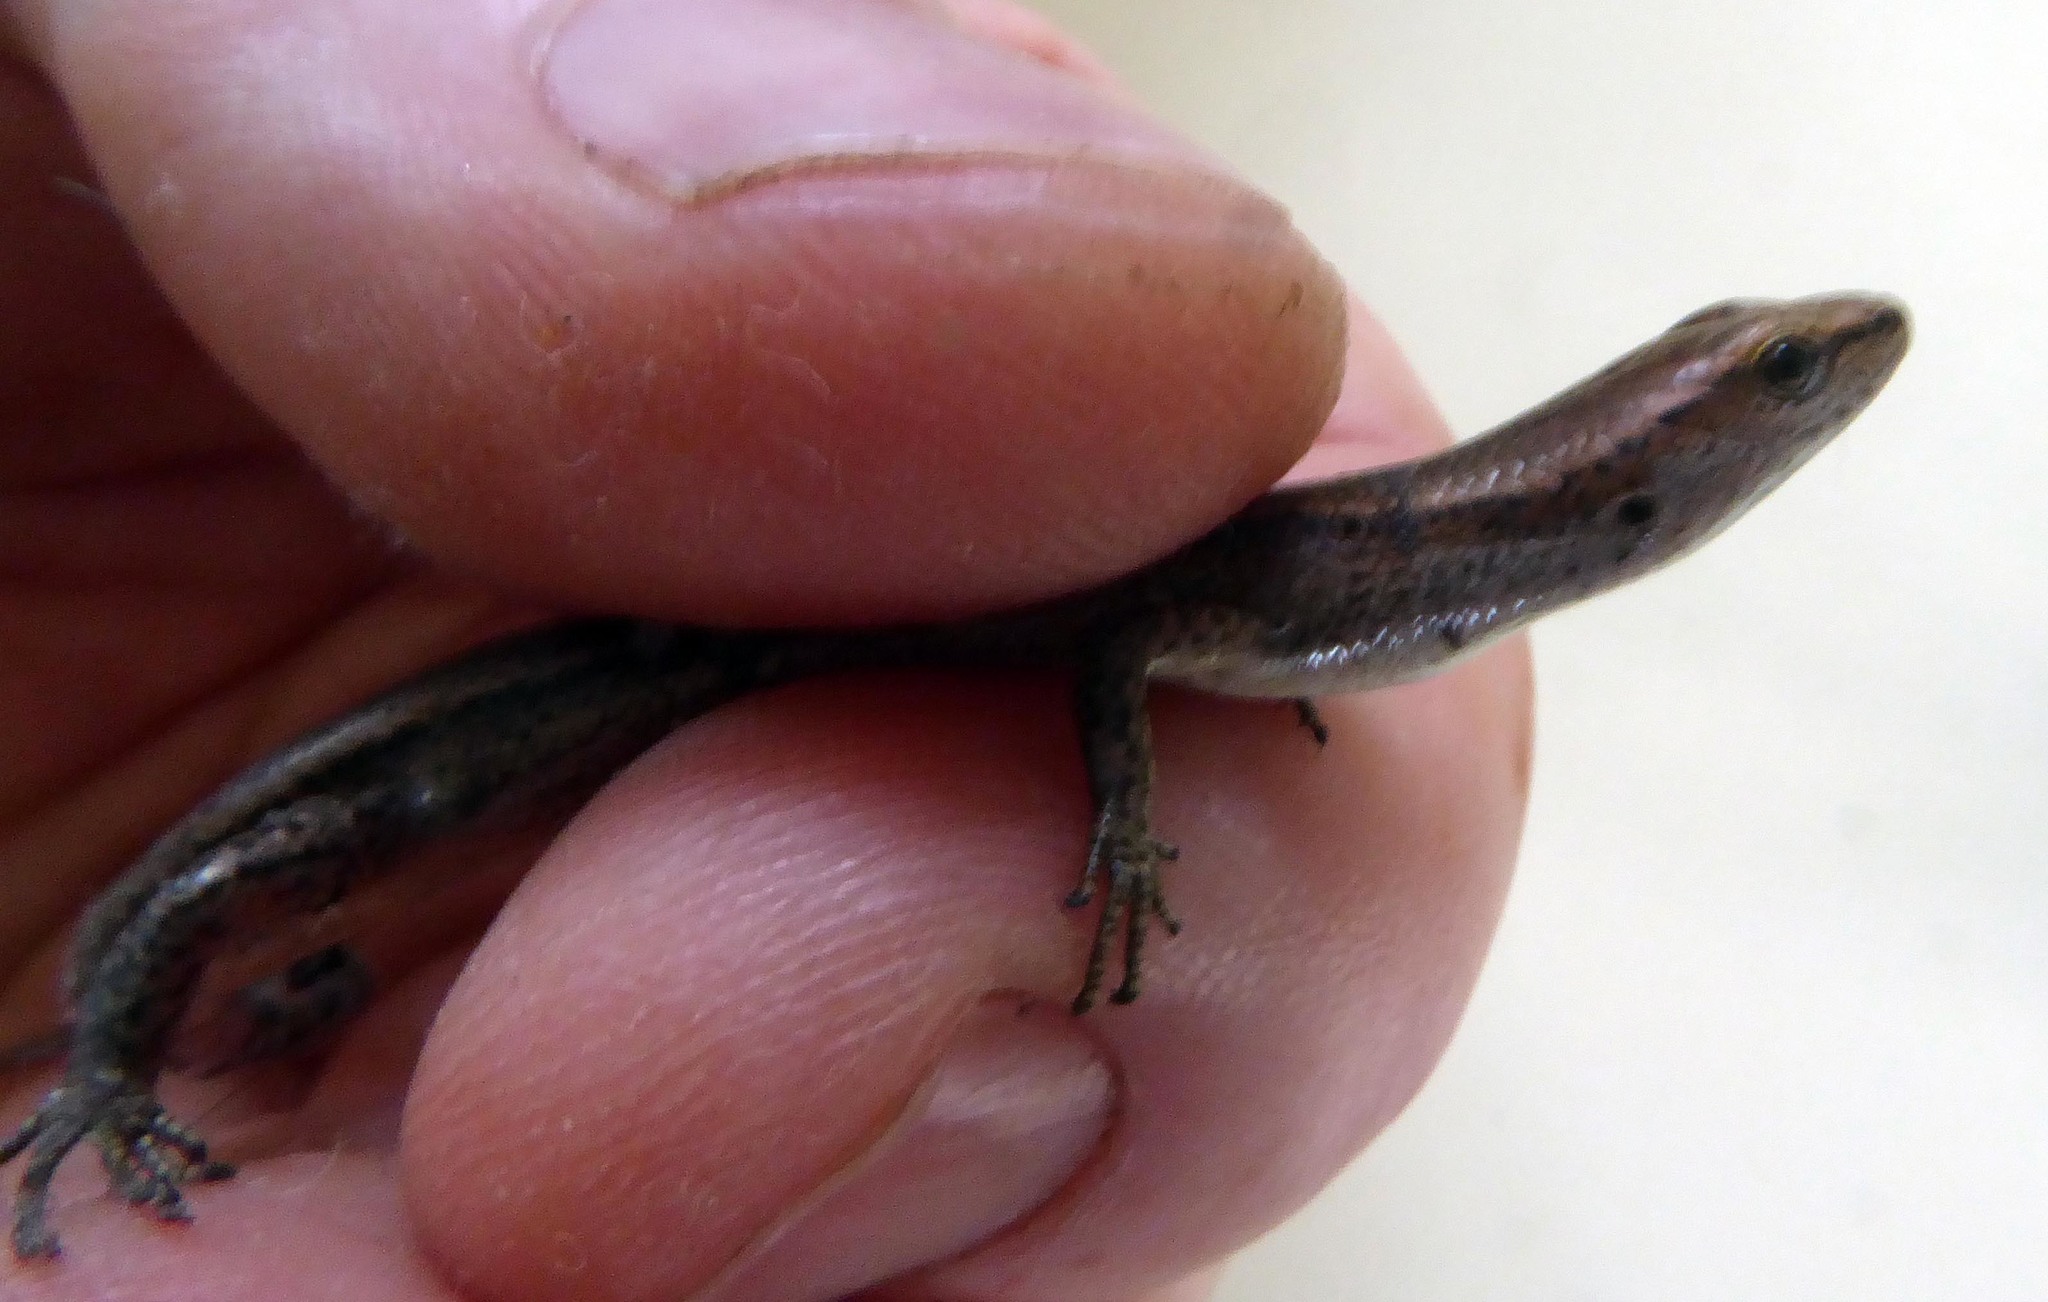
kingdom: Animalia
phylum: Chordata
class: Squamata
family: Scincidae
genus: Lampropholis
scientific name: Lampropholis delicata
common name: Plague skink
